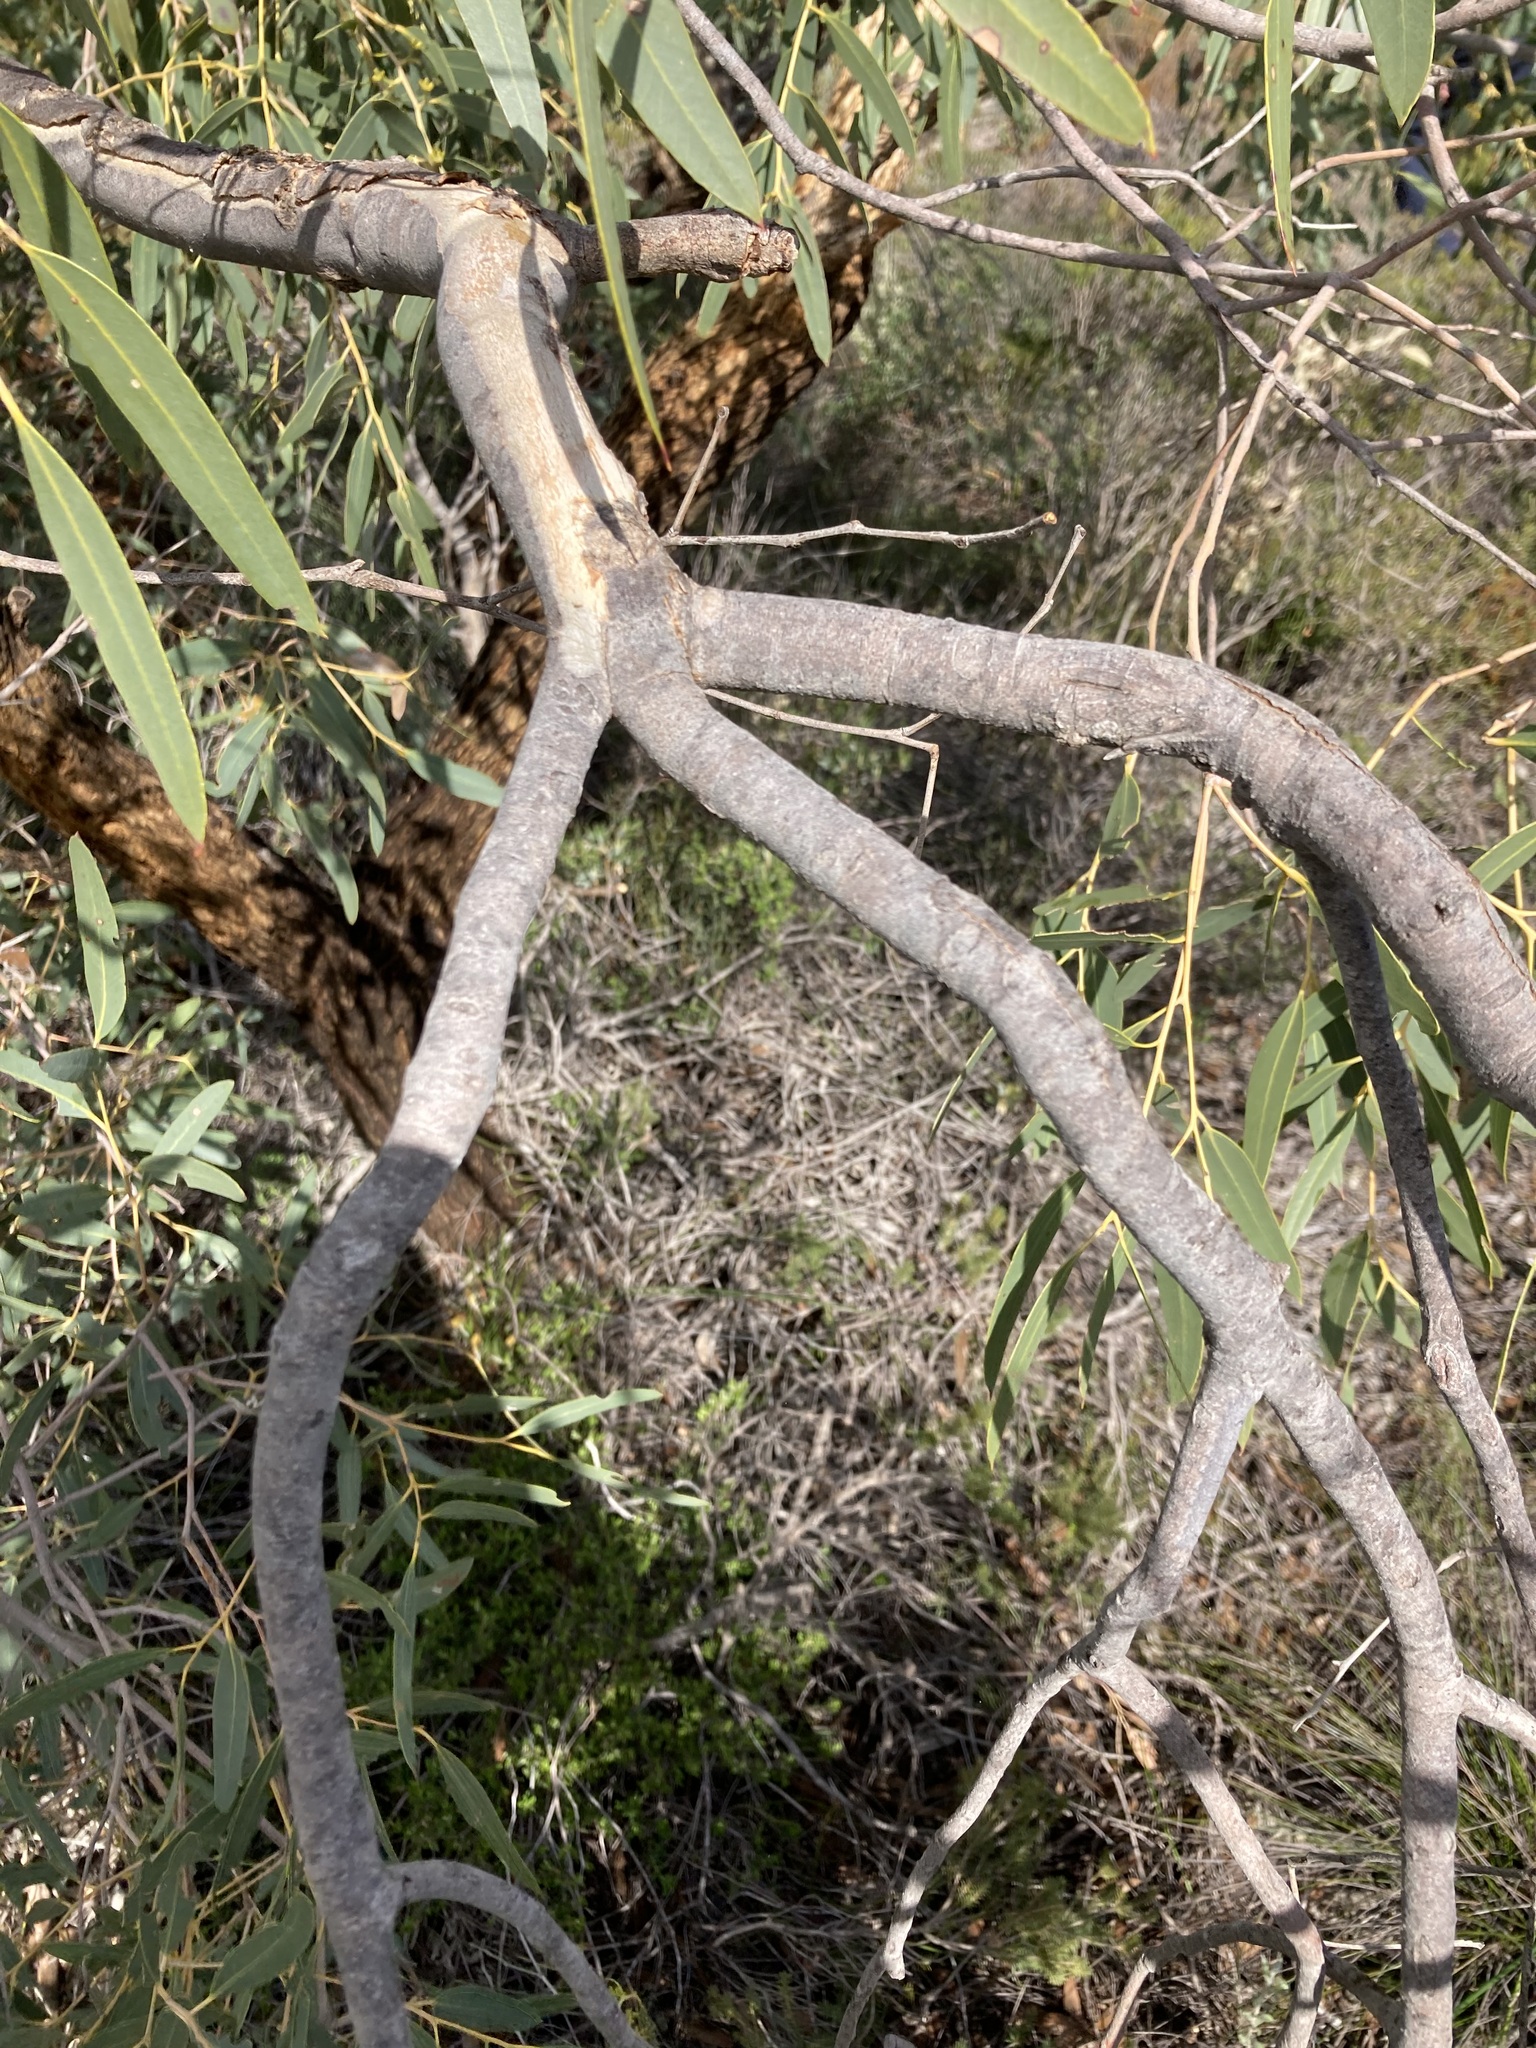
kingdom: Plantae
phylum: Tracheophyta
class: Magnoliopsida
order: Myrtales
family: Myrtaceae
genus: Eucalyptus
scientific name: Eucalyptus todtiana
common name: Coastal blackbutt
